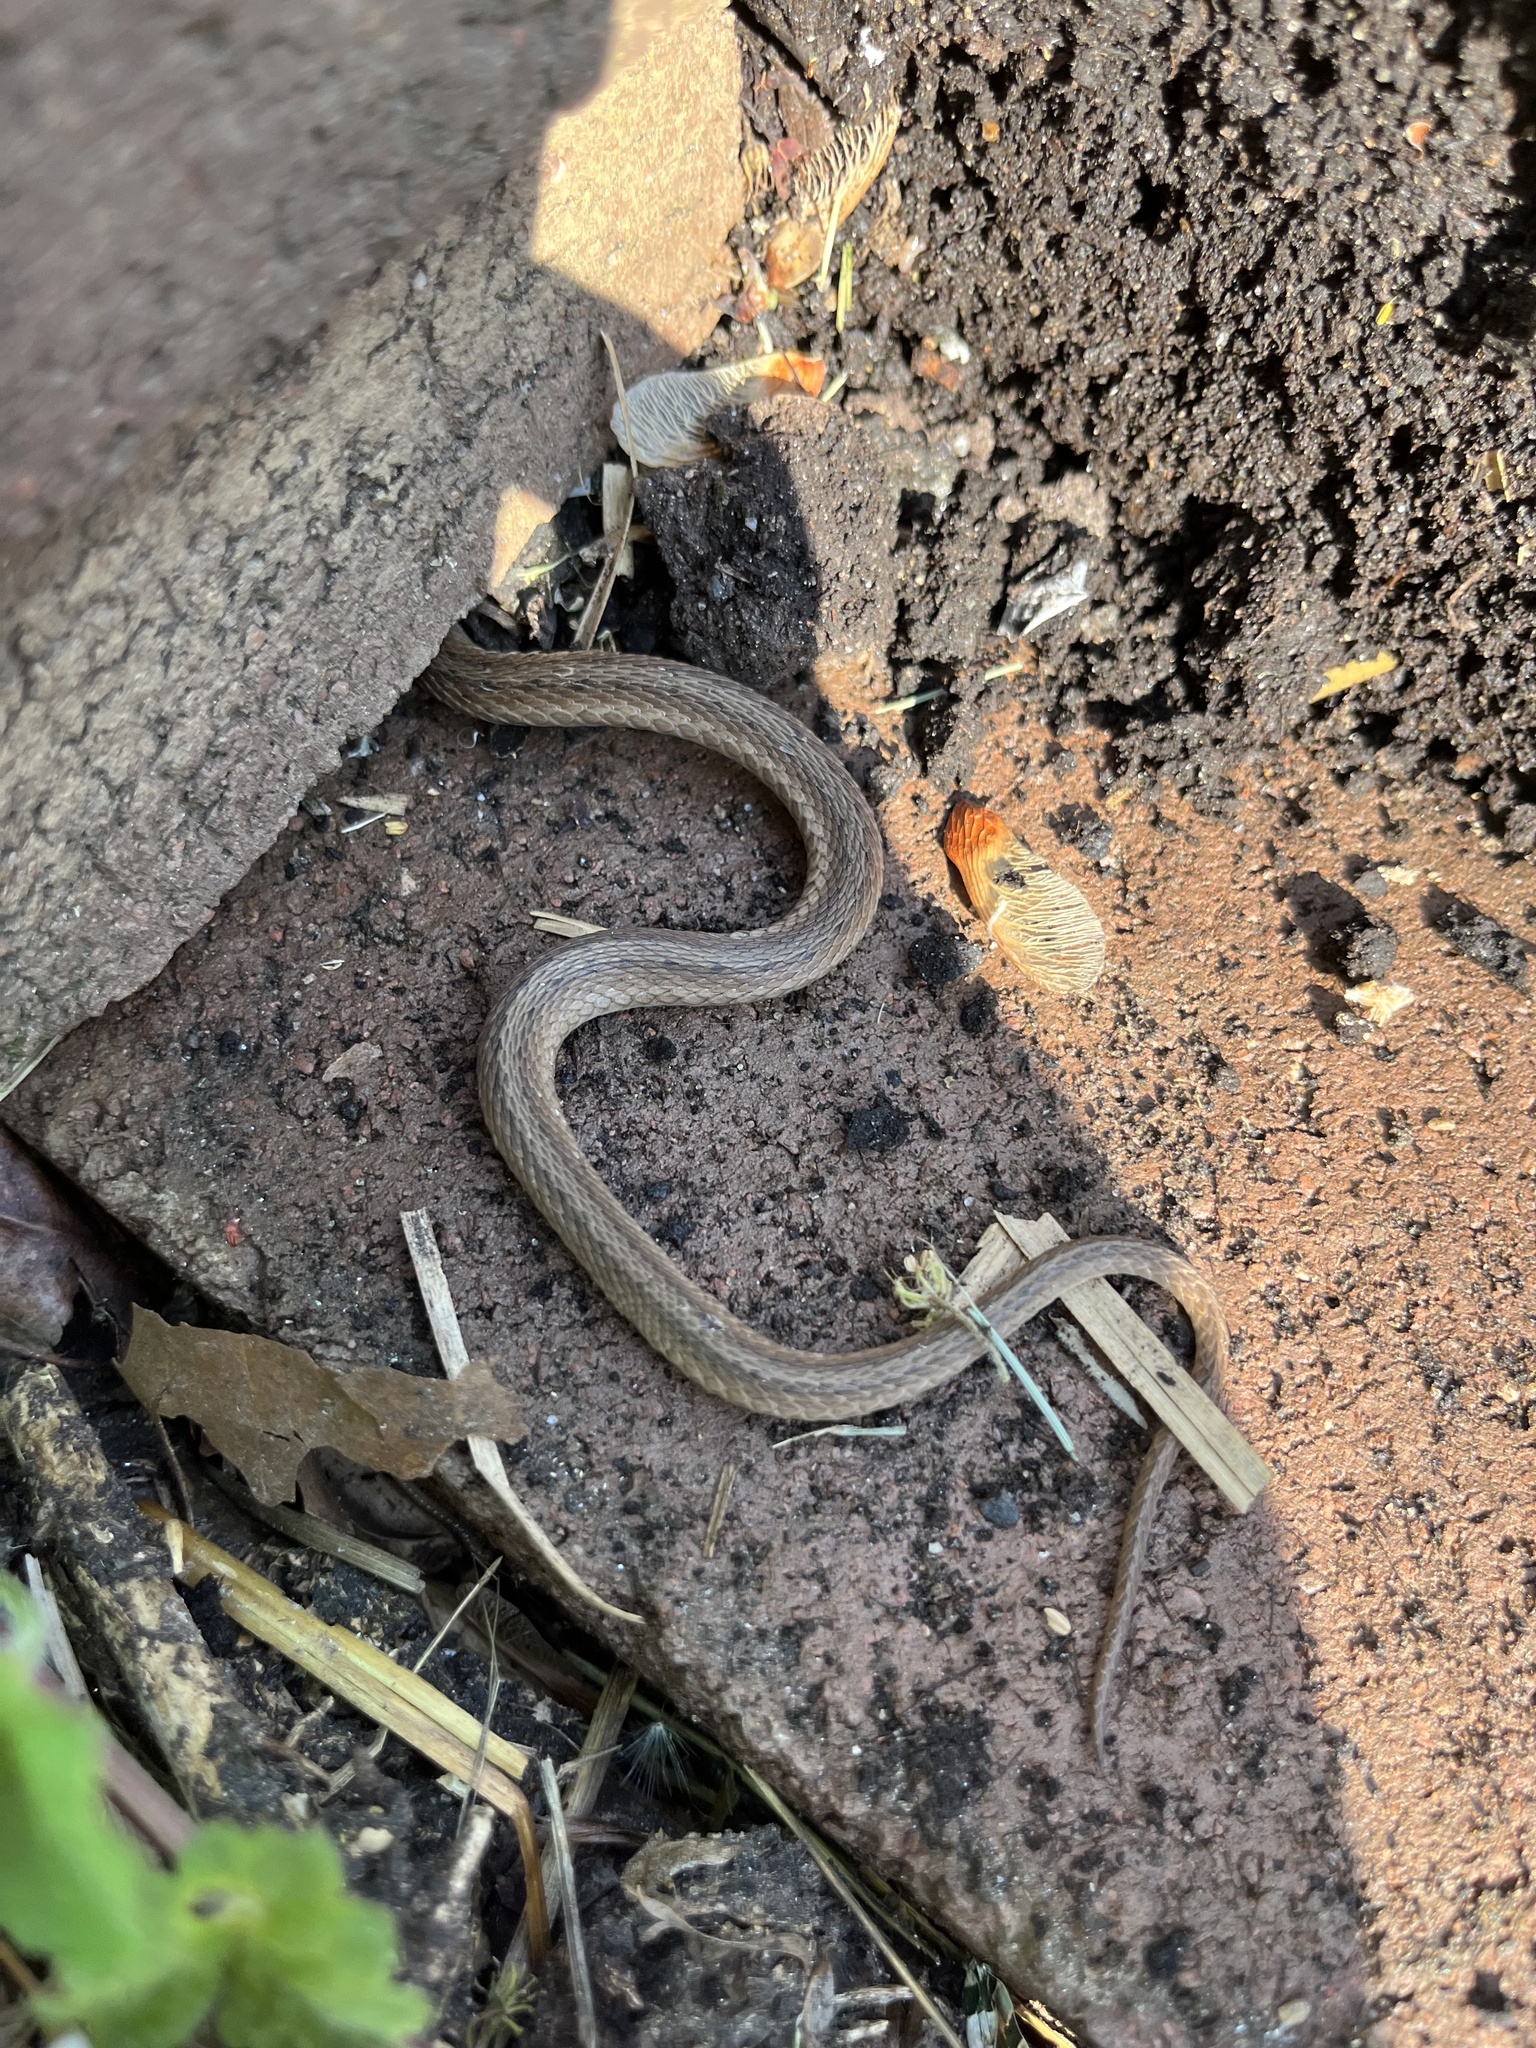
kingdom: Animalia
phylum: Chordata
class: Squamata
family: Colubridae
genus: Storeria
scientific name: Storeria dekayi
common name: (dekay’s) brown snake
